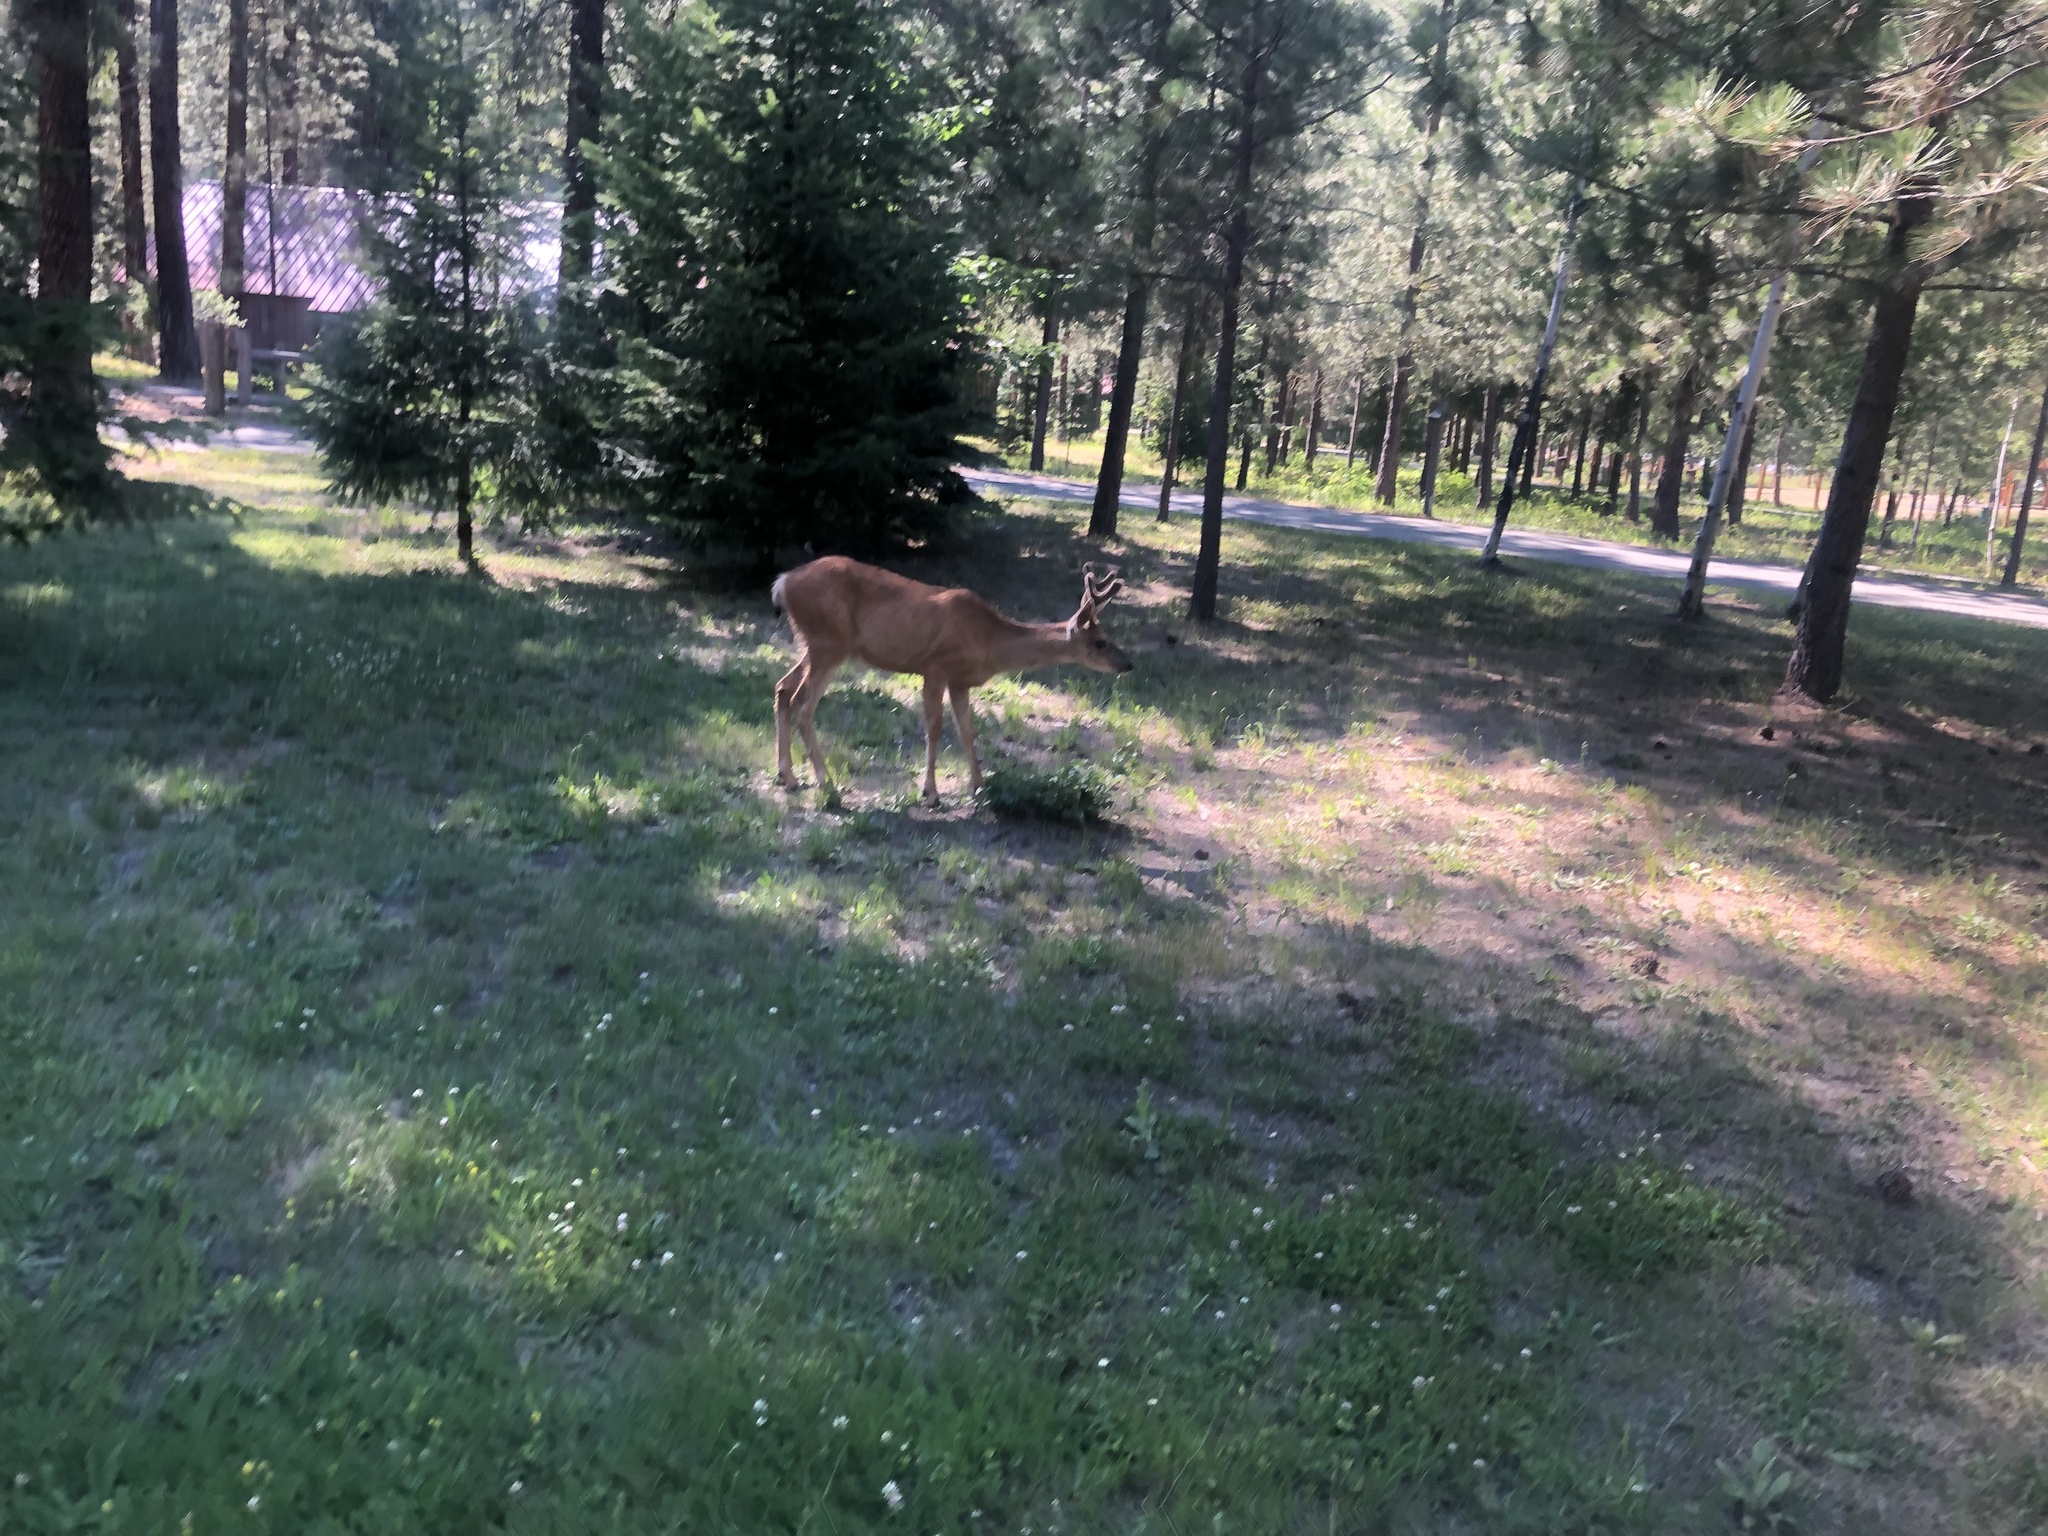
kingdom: Animalia
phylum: Chordata
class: Mammalia
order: Artiodactyla
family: Cervidae
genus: Odocoileus
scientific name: Odocoileus hemionus
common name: Mule deer
